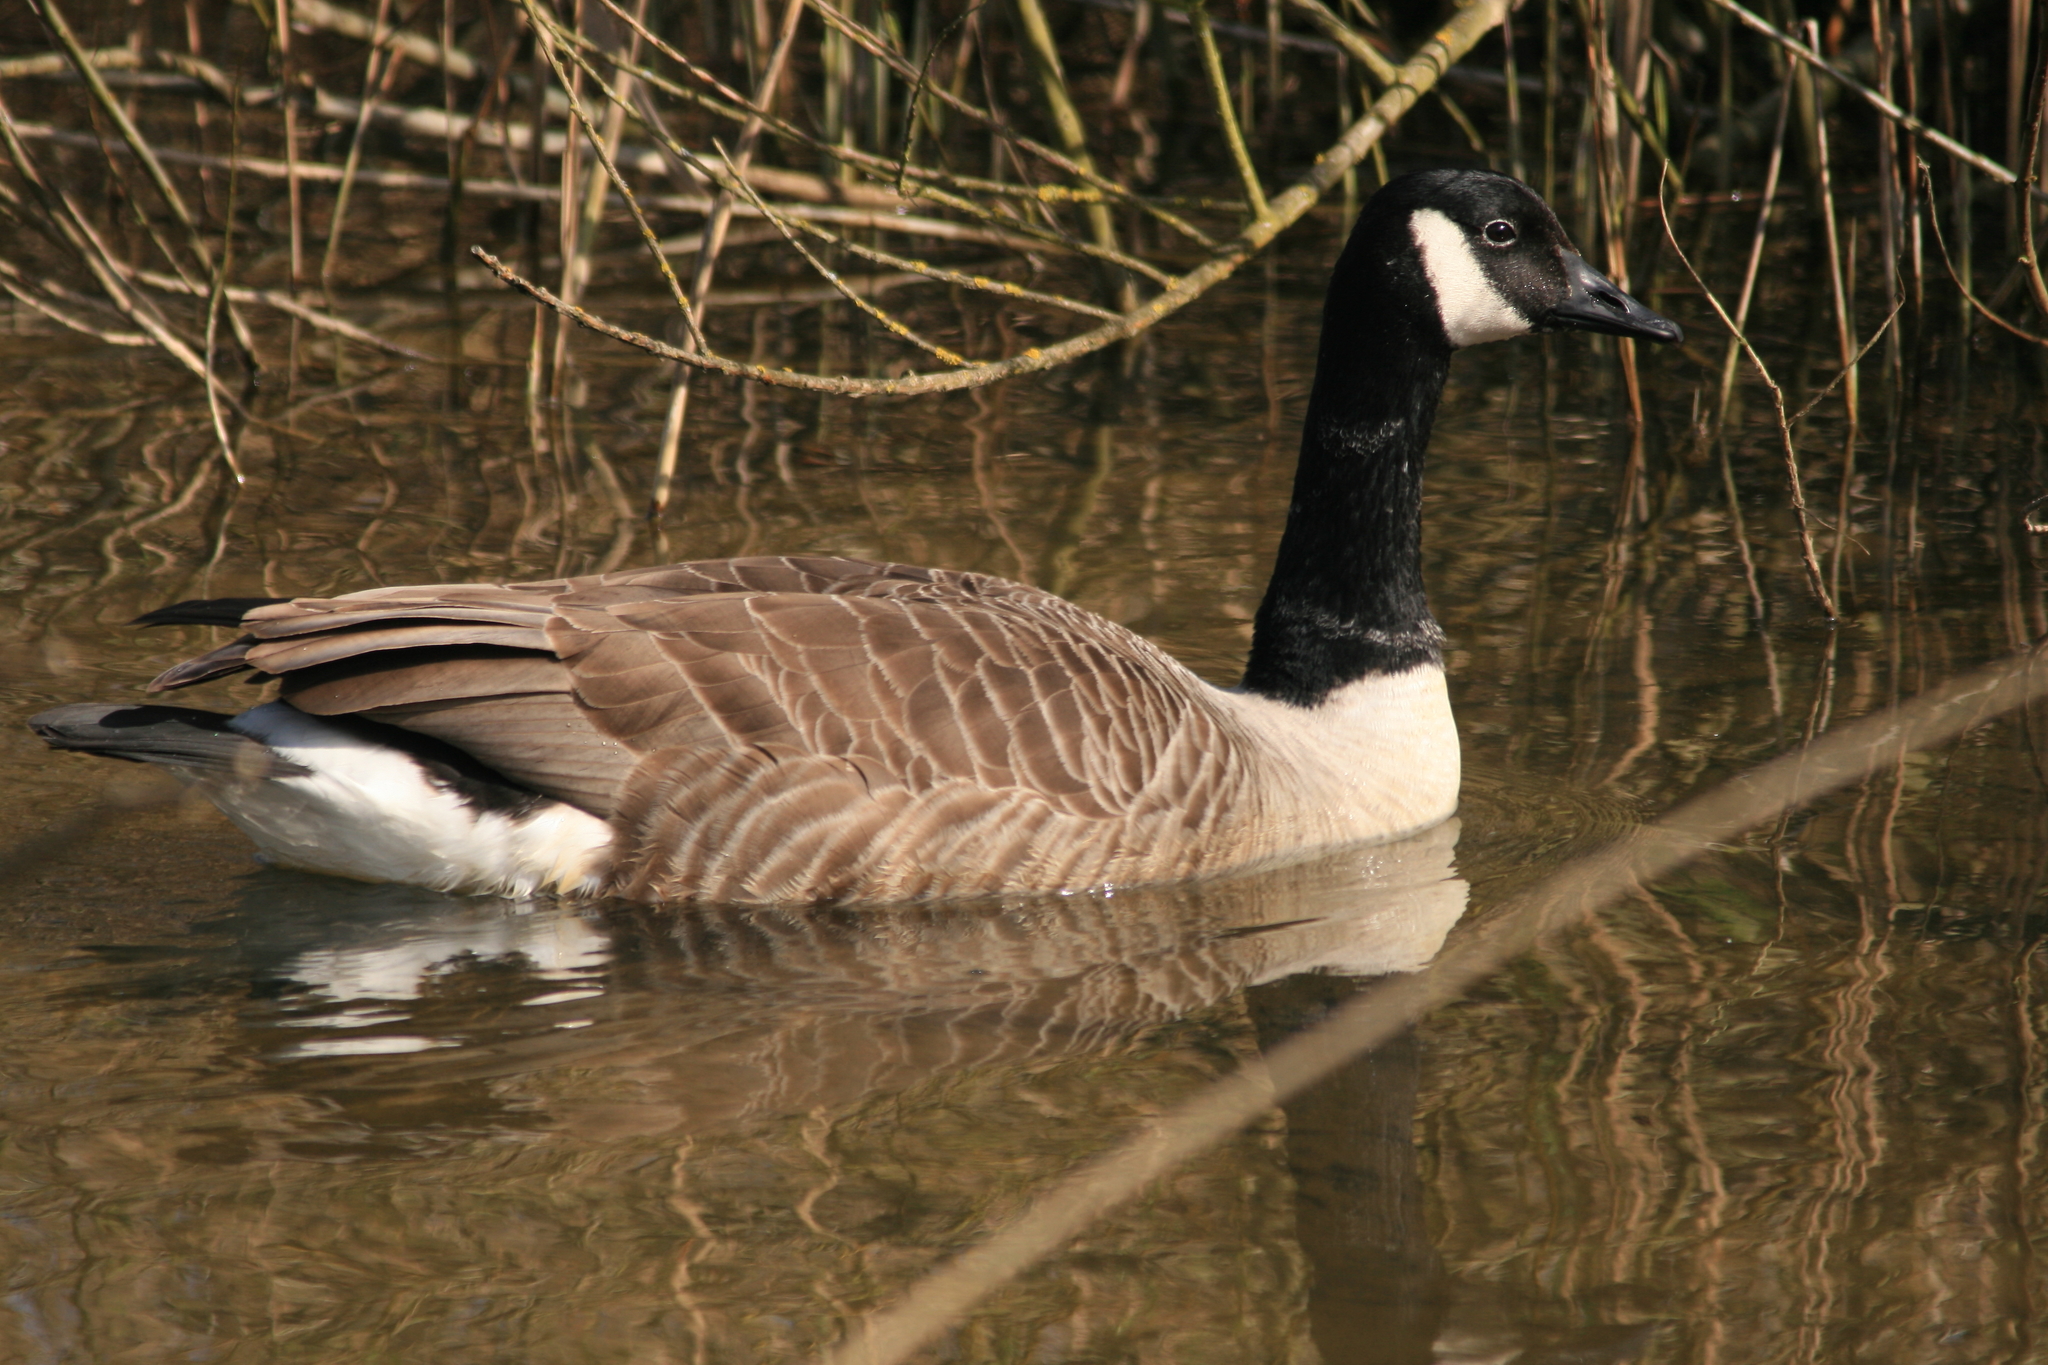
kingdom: Animalia
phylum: Chordata
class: Aves
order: Anseriformes
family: Anatidae
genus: Branta
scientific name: Branta canadensis
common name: Canada goose
